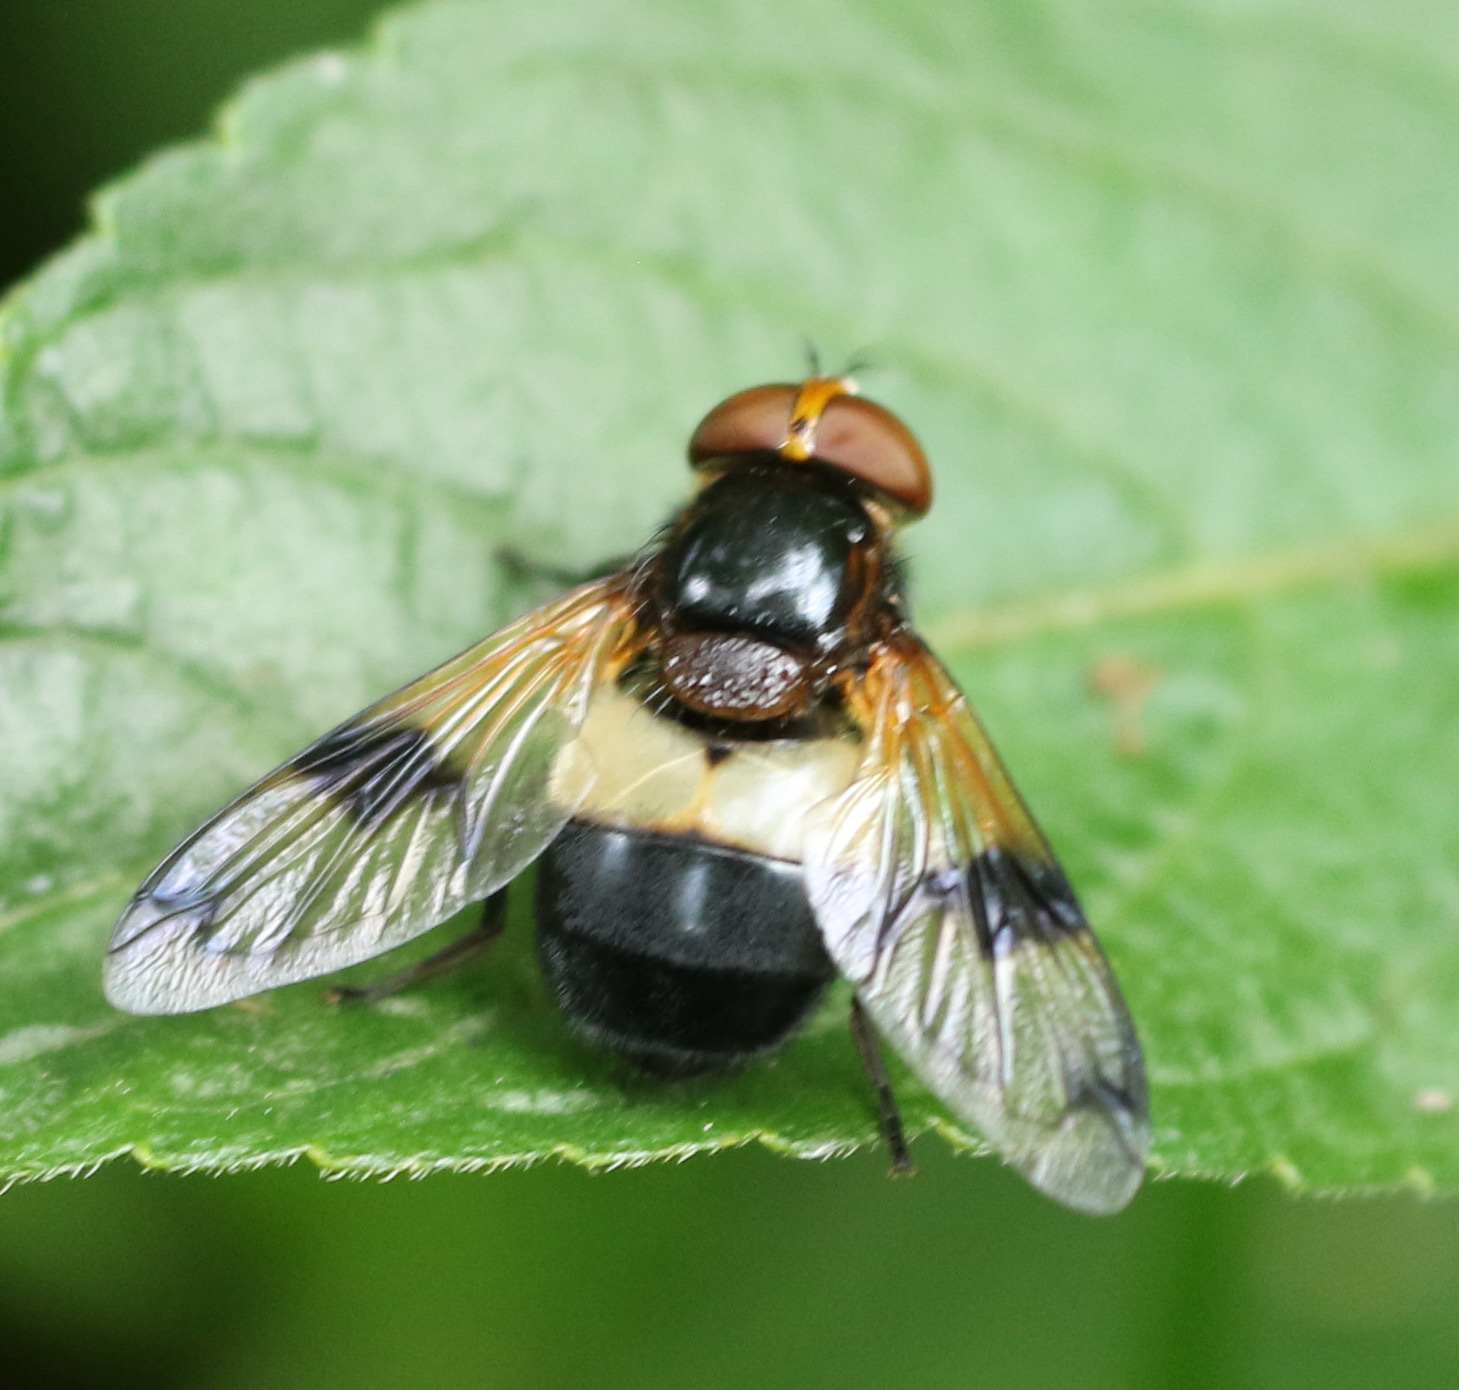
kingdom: Animalia
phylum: Arthropoda
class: Insecta
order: Diptera
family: Syrphidae
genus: Volucella
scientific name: Volucella pellucens
